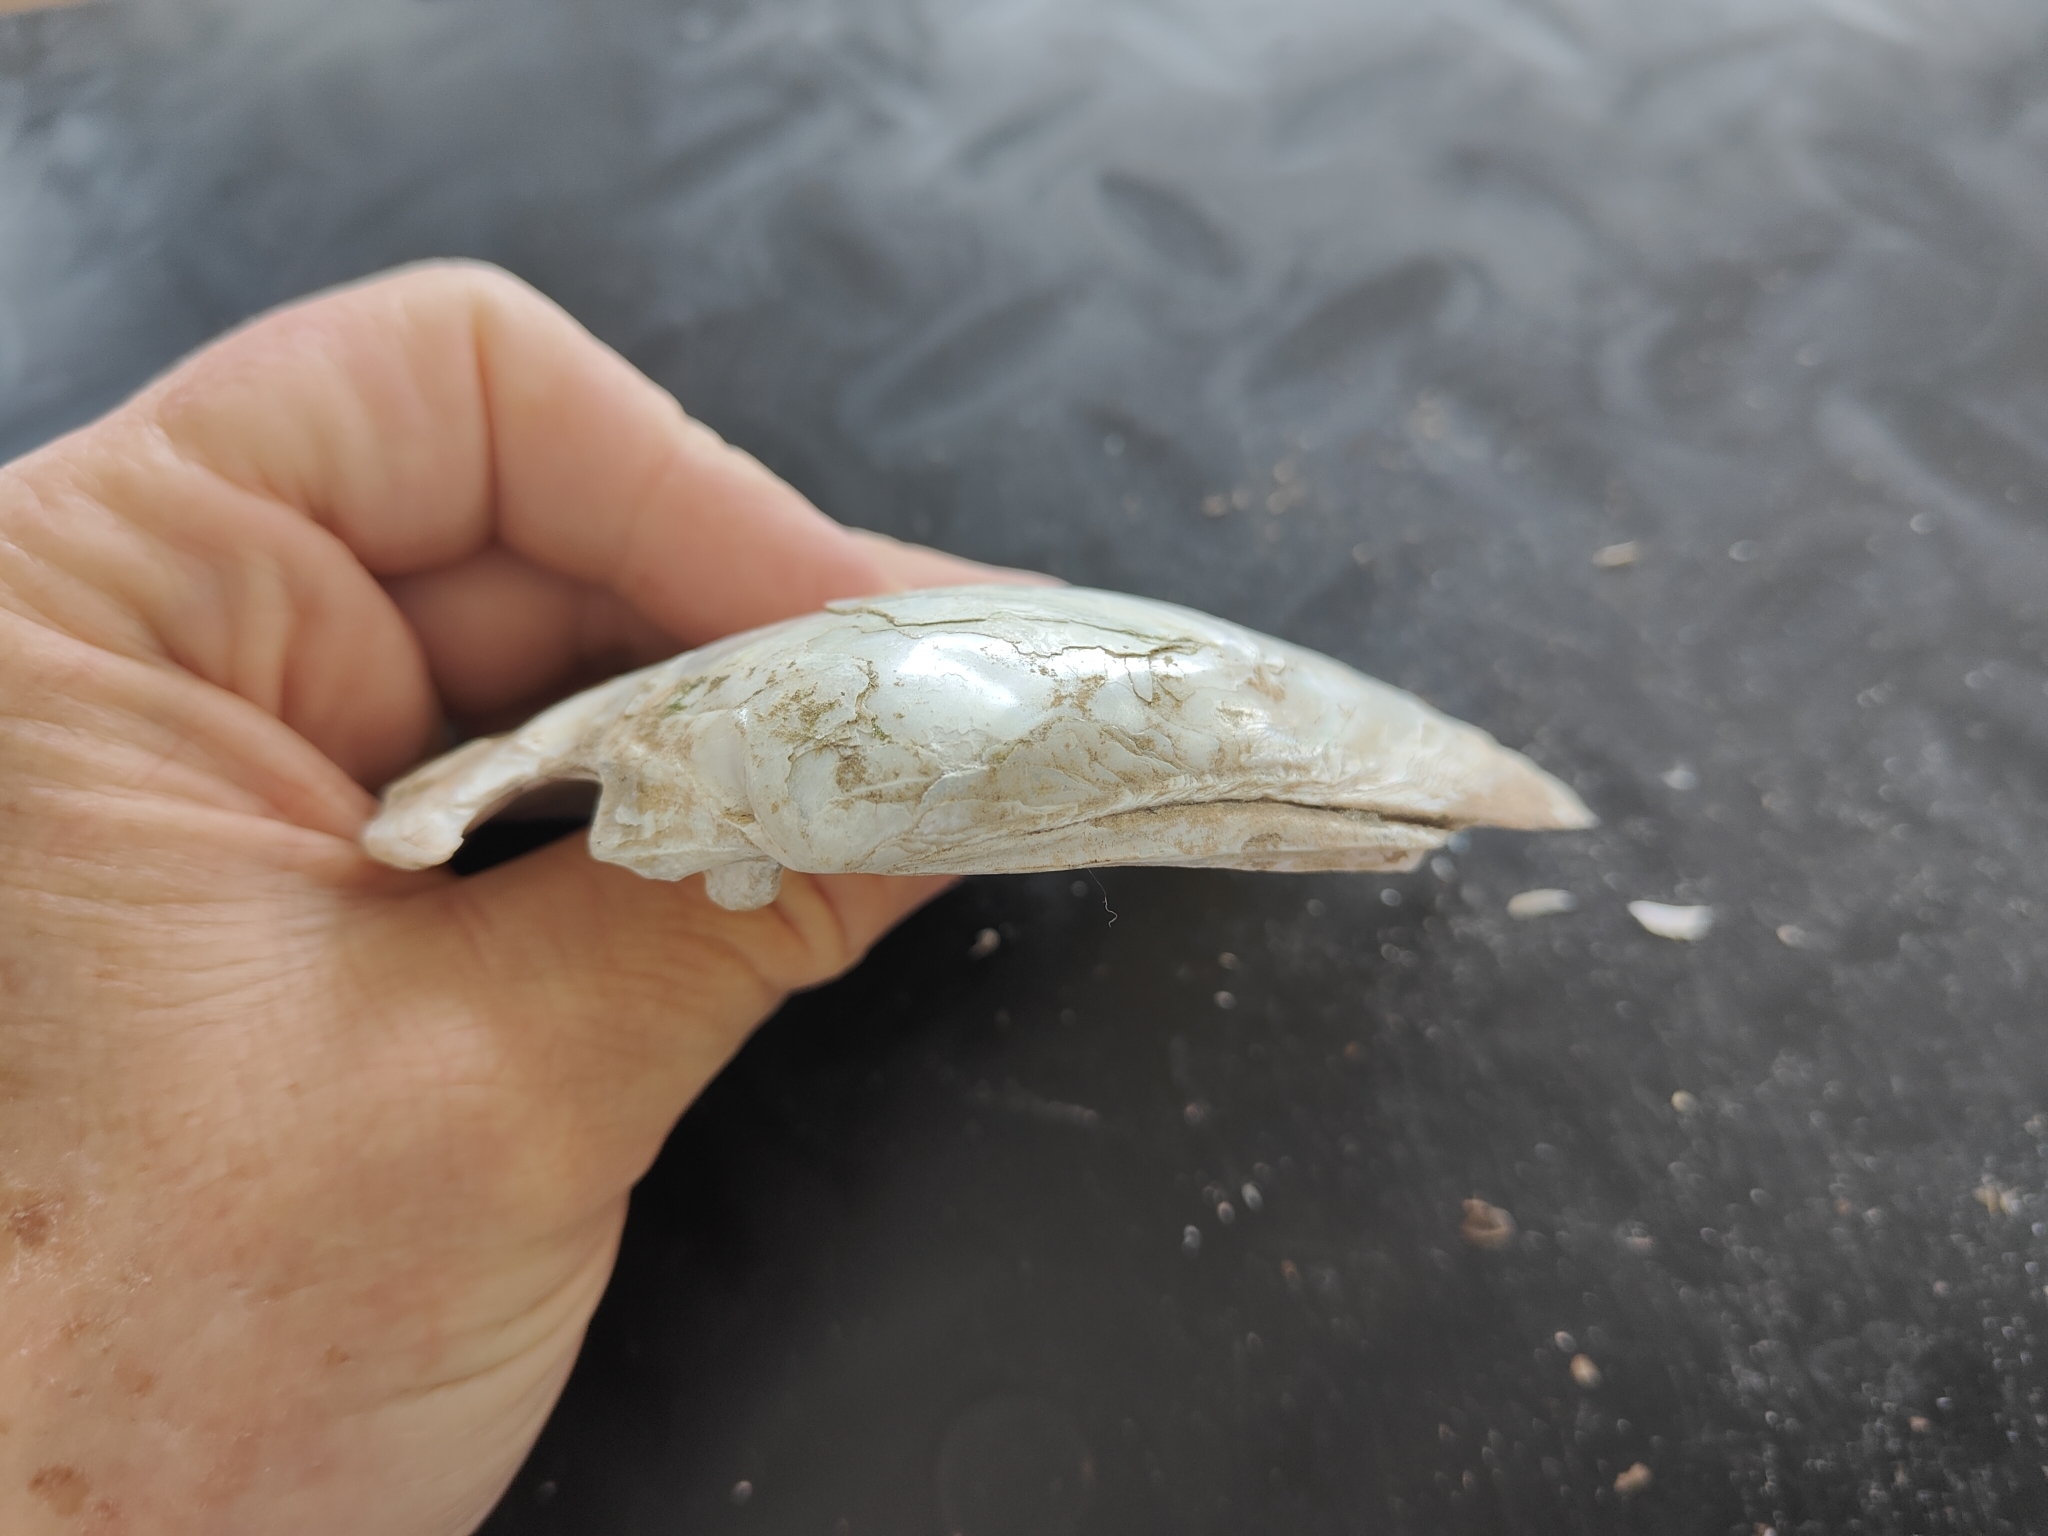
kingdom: Animalia
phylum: Mollusca
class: Bivalvia
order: Unionida
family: Unionidae
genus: Lampsilis
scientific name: Lampsilis cardium
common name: Plain pocketbook
